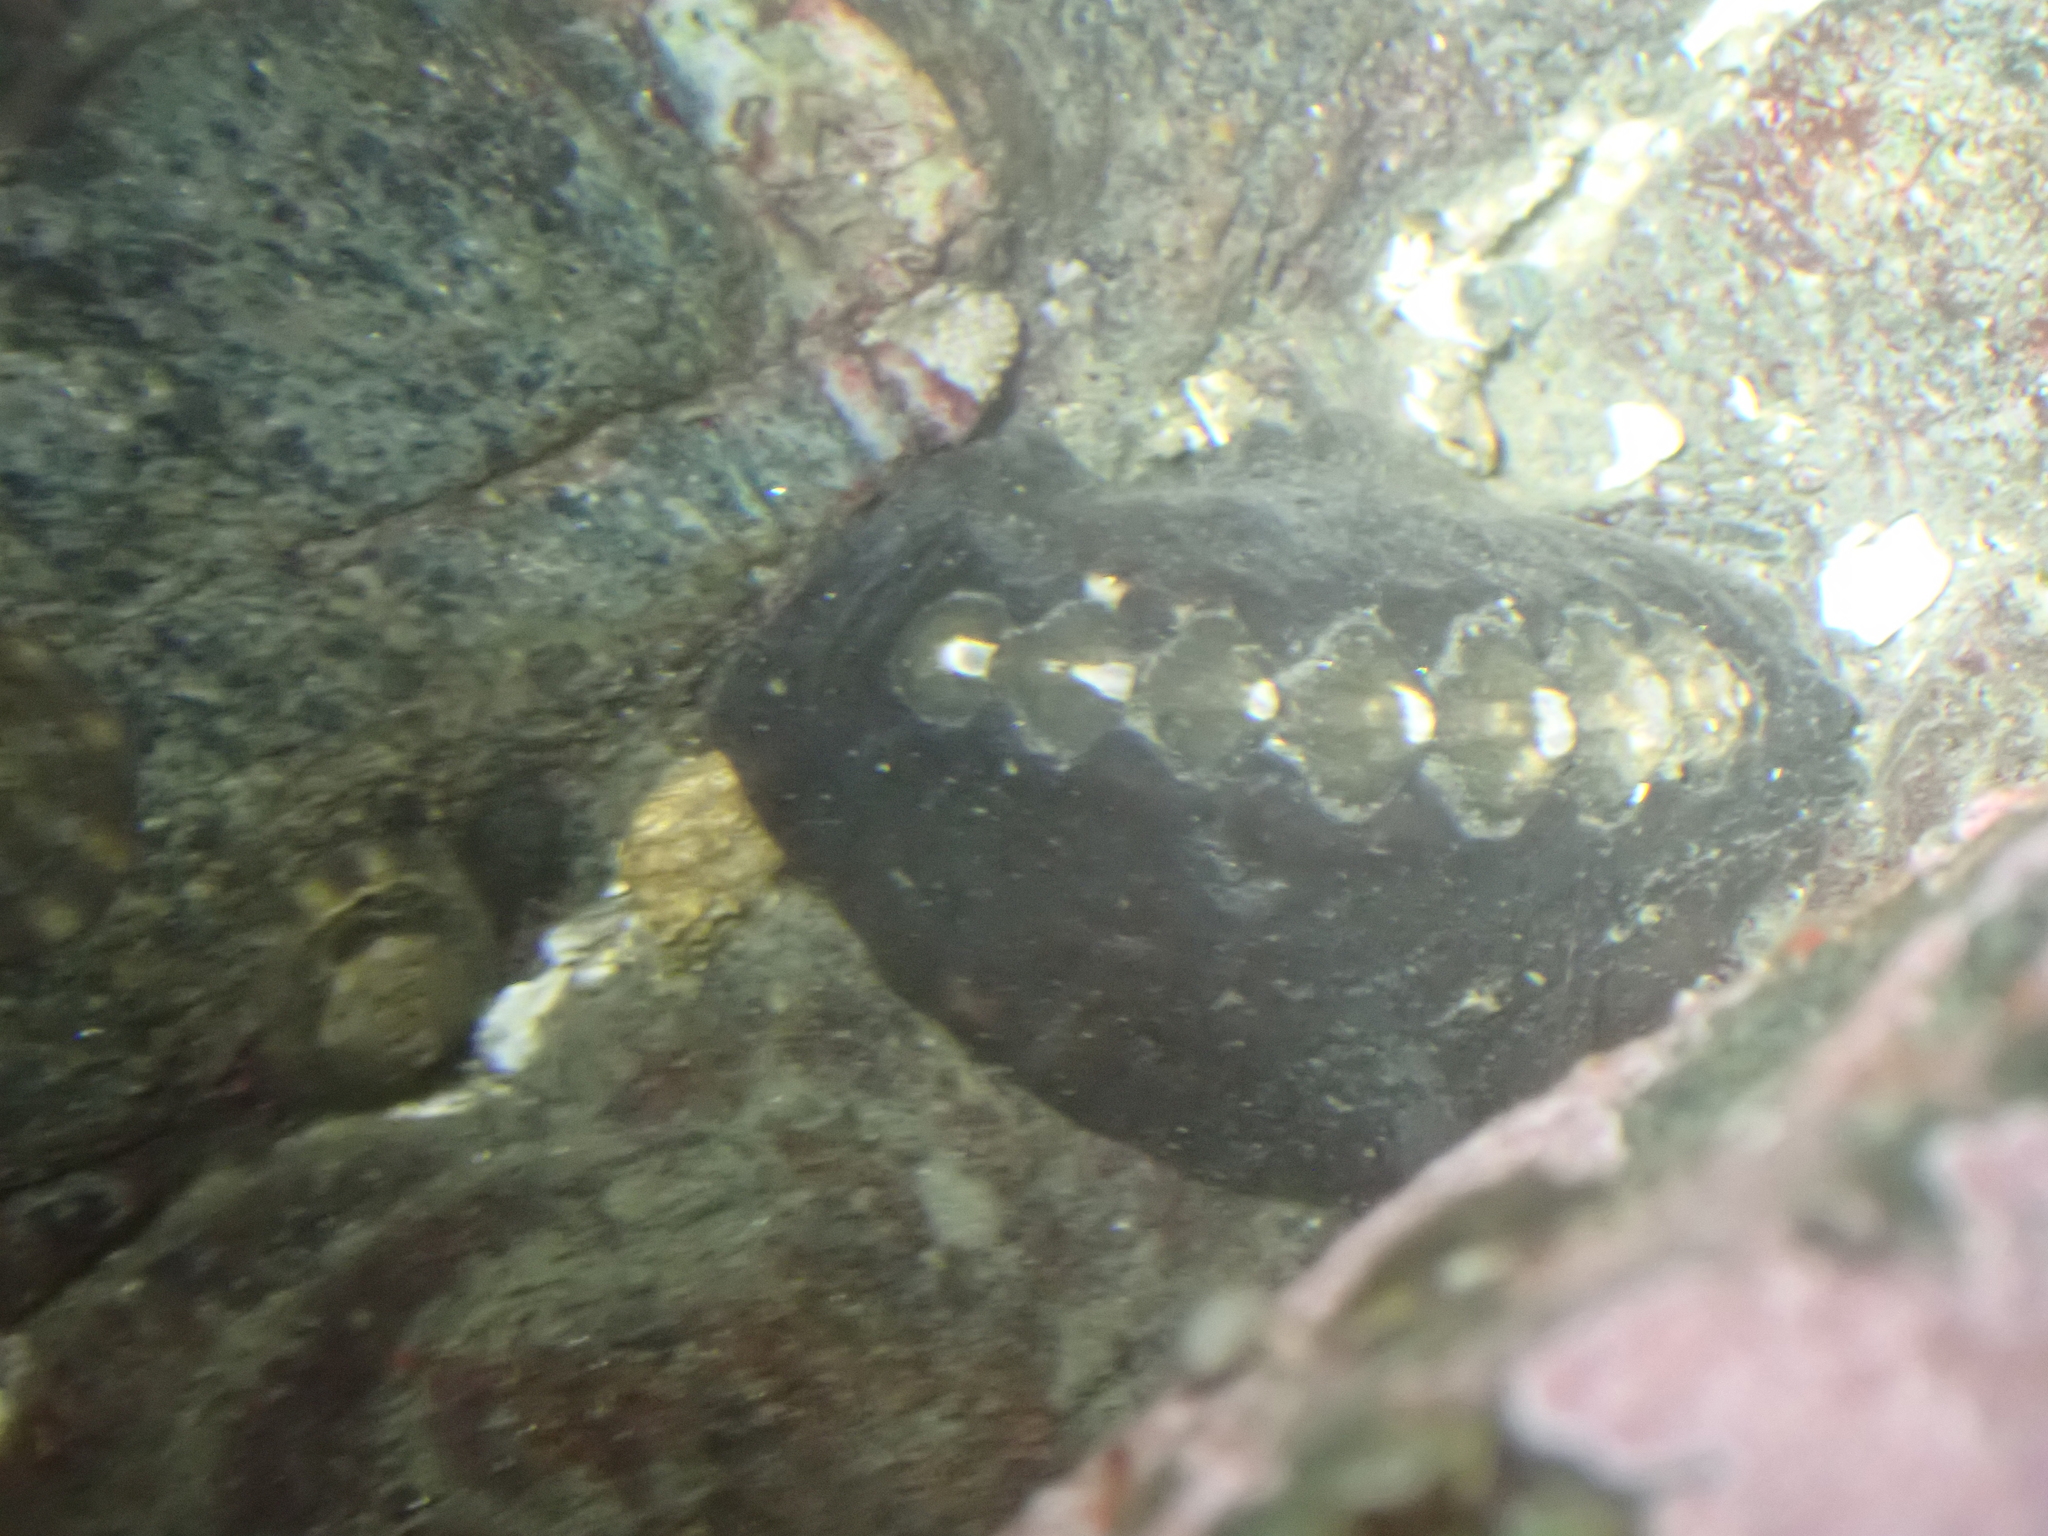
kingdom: Animalia
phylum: Mollusca
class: Polyplacophora
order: Chitonida
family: Mopaliidae
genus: Katharina
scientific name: Katharina tunicata
